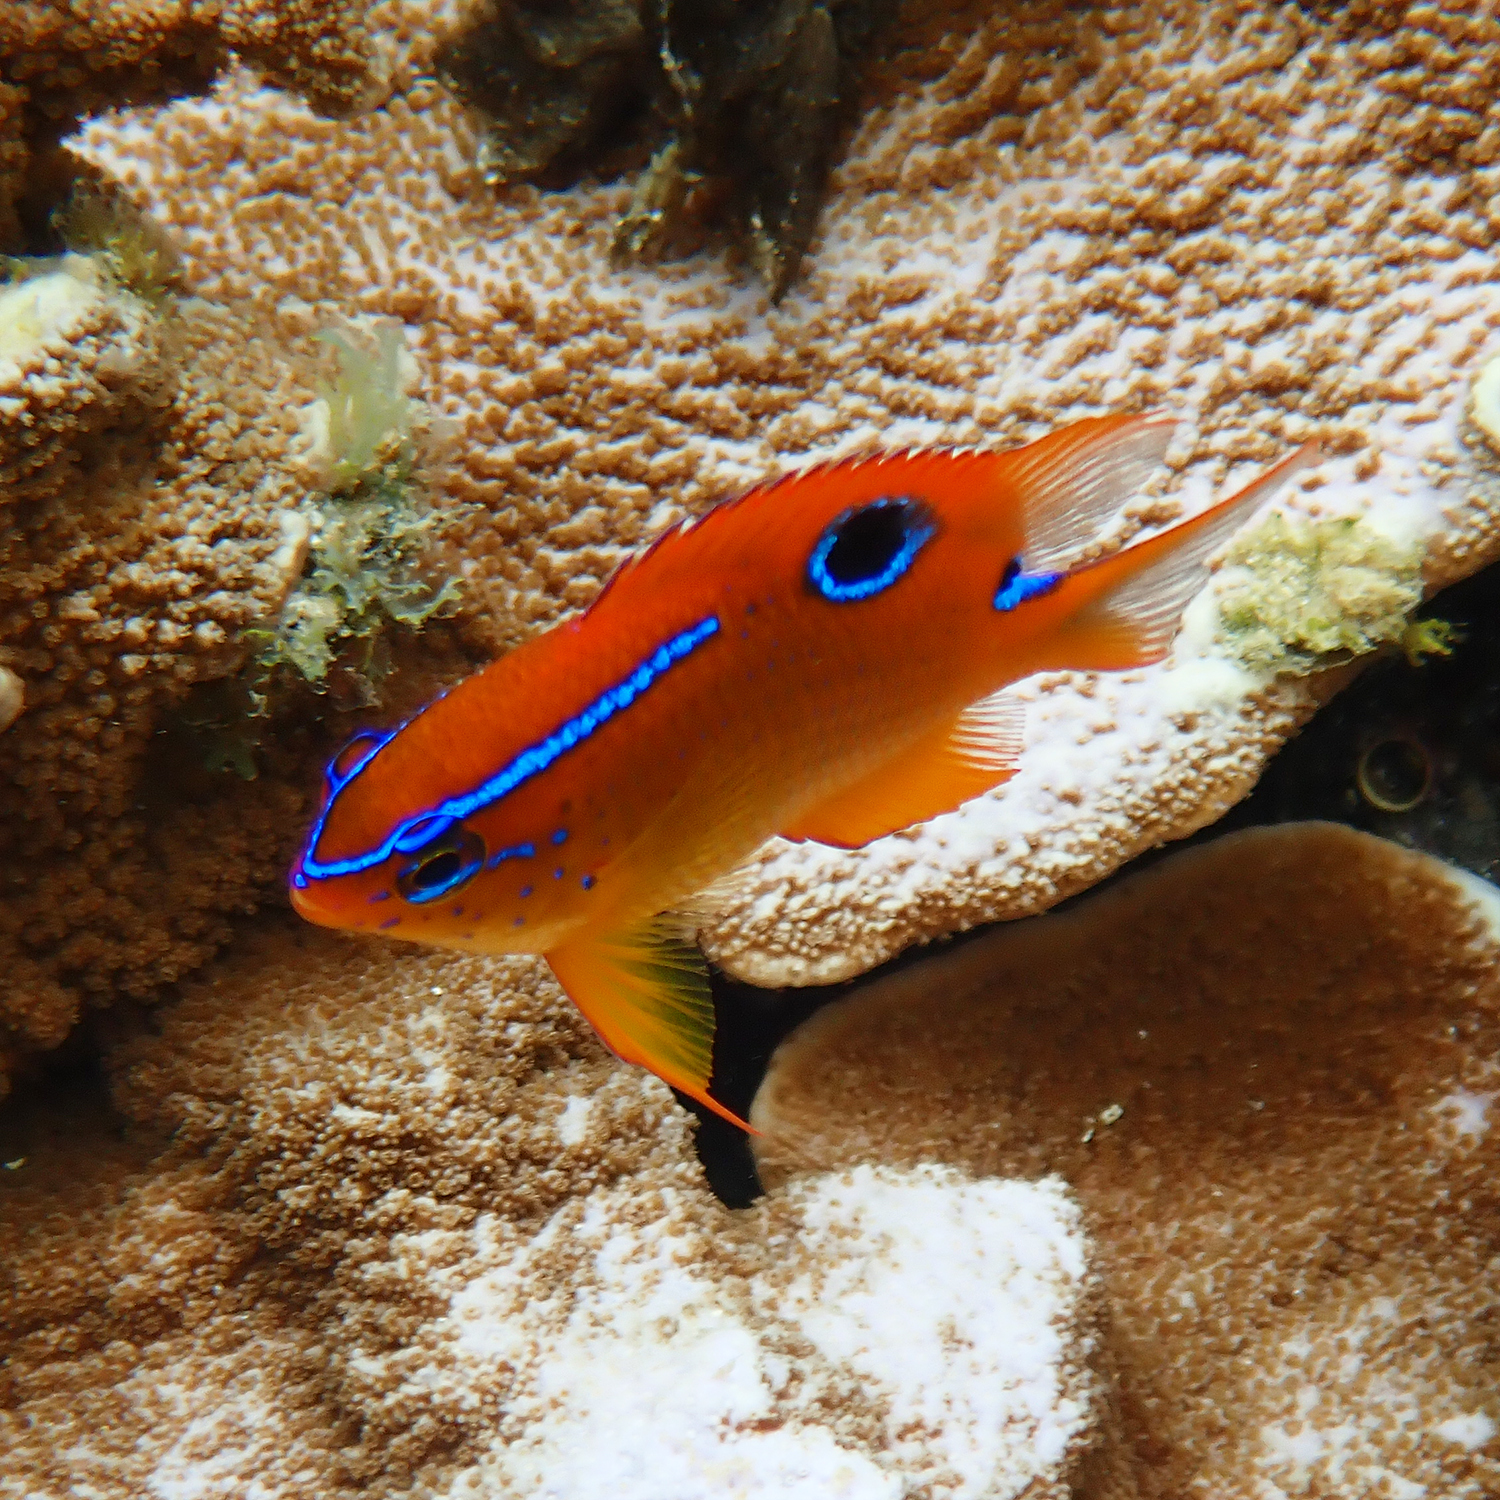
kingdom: Animalia
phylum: Chordata
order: Perciformes
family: Pomacentridae
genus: Neoglyphidodon
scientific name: Neoglyphidodon polyacanthus
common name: Multi-spined damsel
